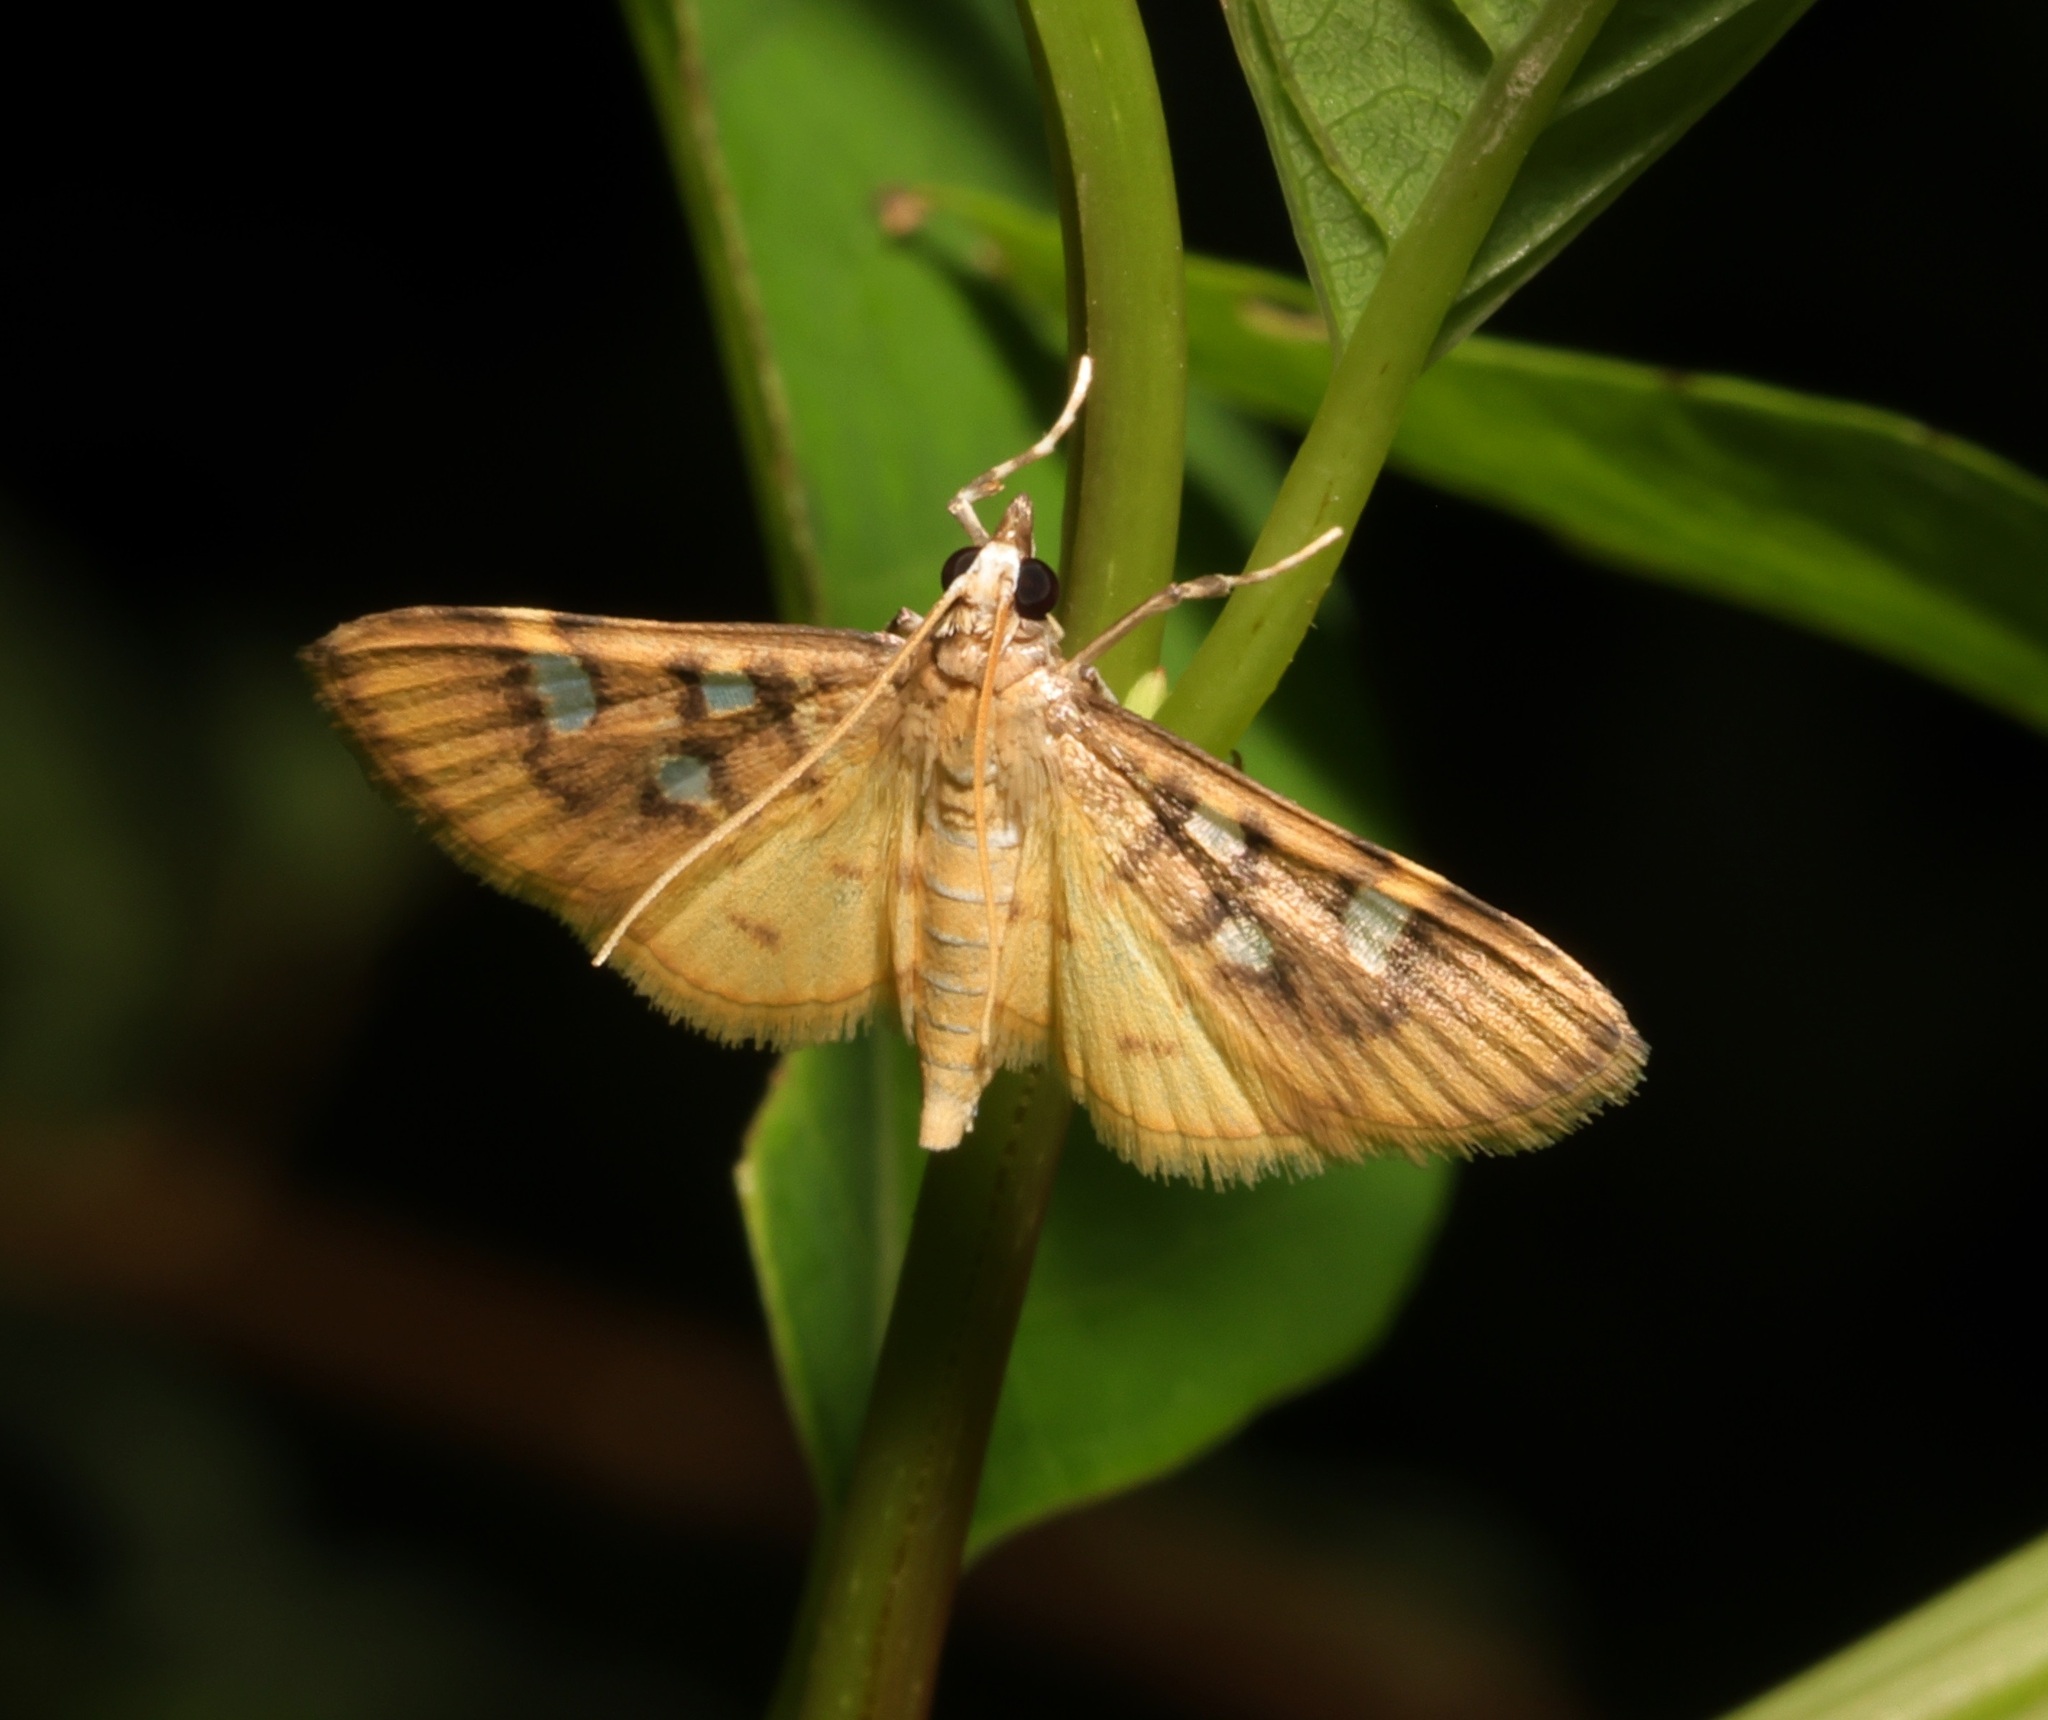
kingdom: Animalia
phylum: Arthropoda
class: Insecta
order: Lepidoptera
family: Crambidae
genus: Cotachena
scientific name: Cotachena histricalis
